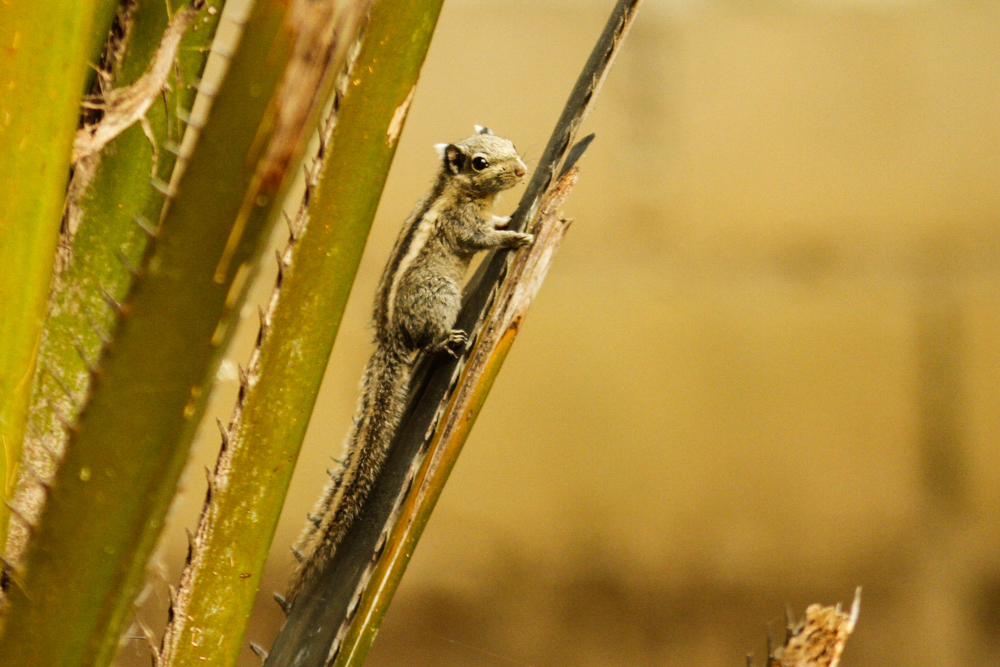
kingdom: Animalia
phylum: Chordata
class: Mammalia
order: Rodentia
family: Sciuridae
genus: Tamiops
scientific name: Tamiops mcclellandii
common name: Himalayan striped squirrel
